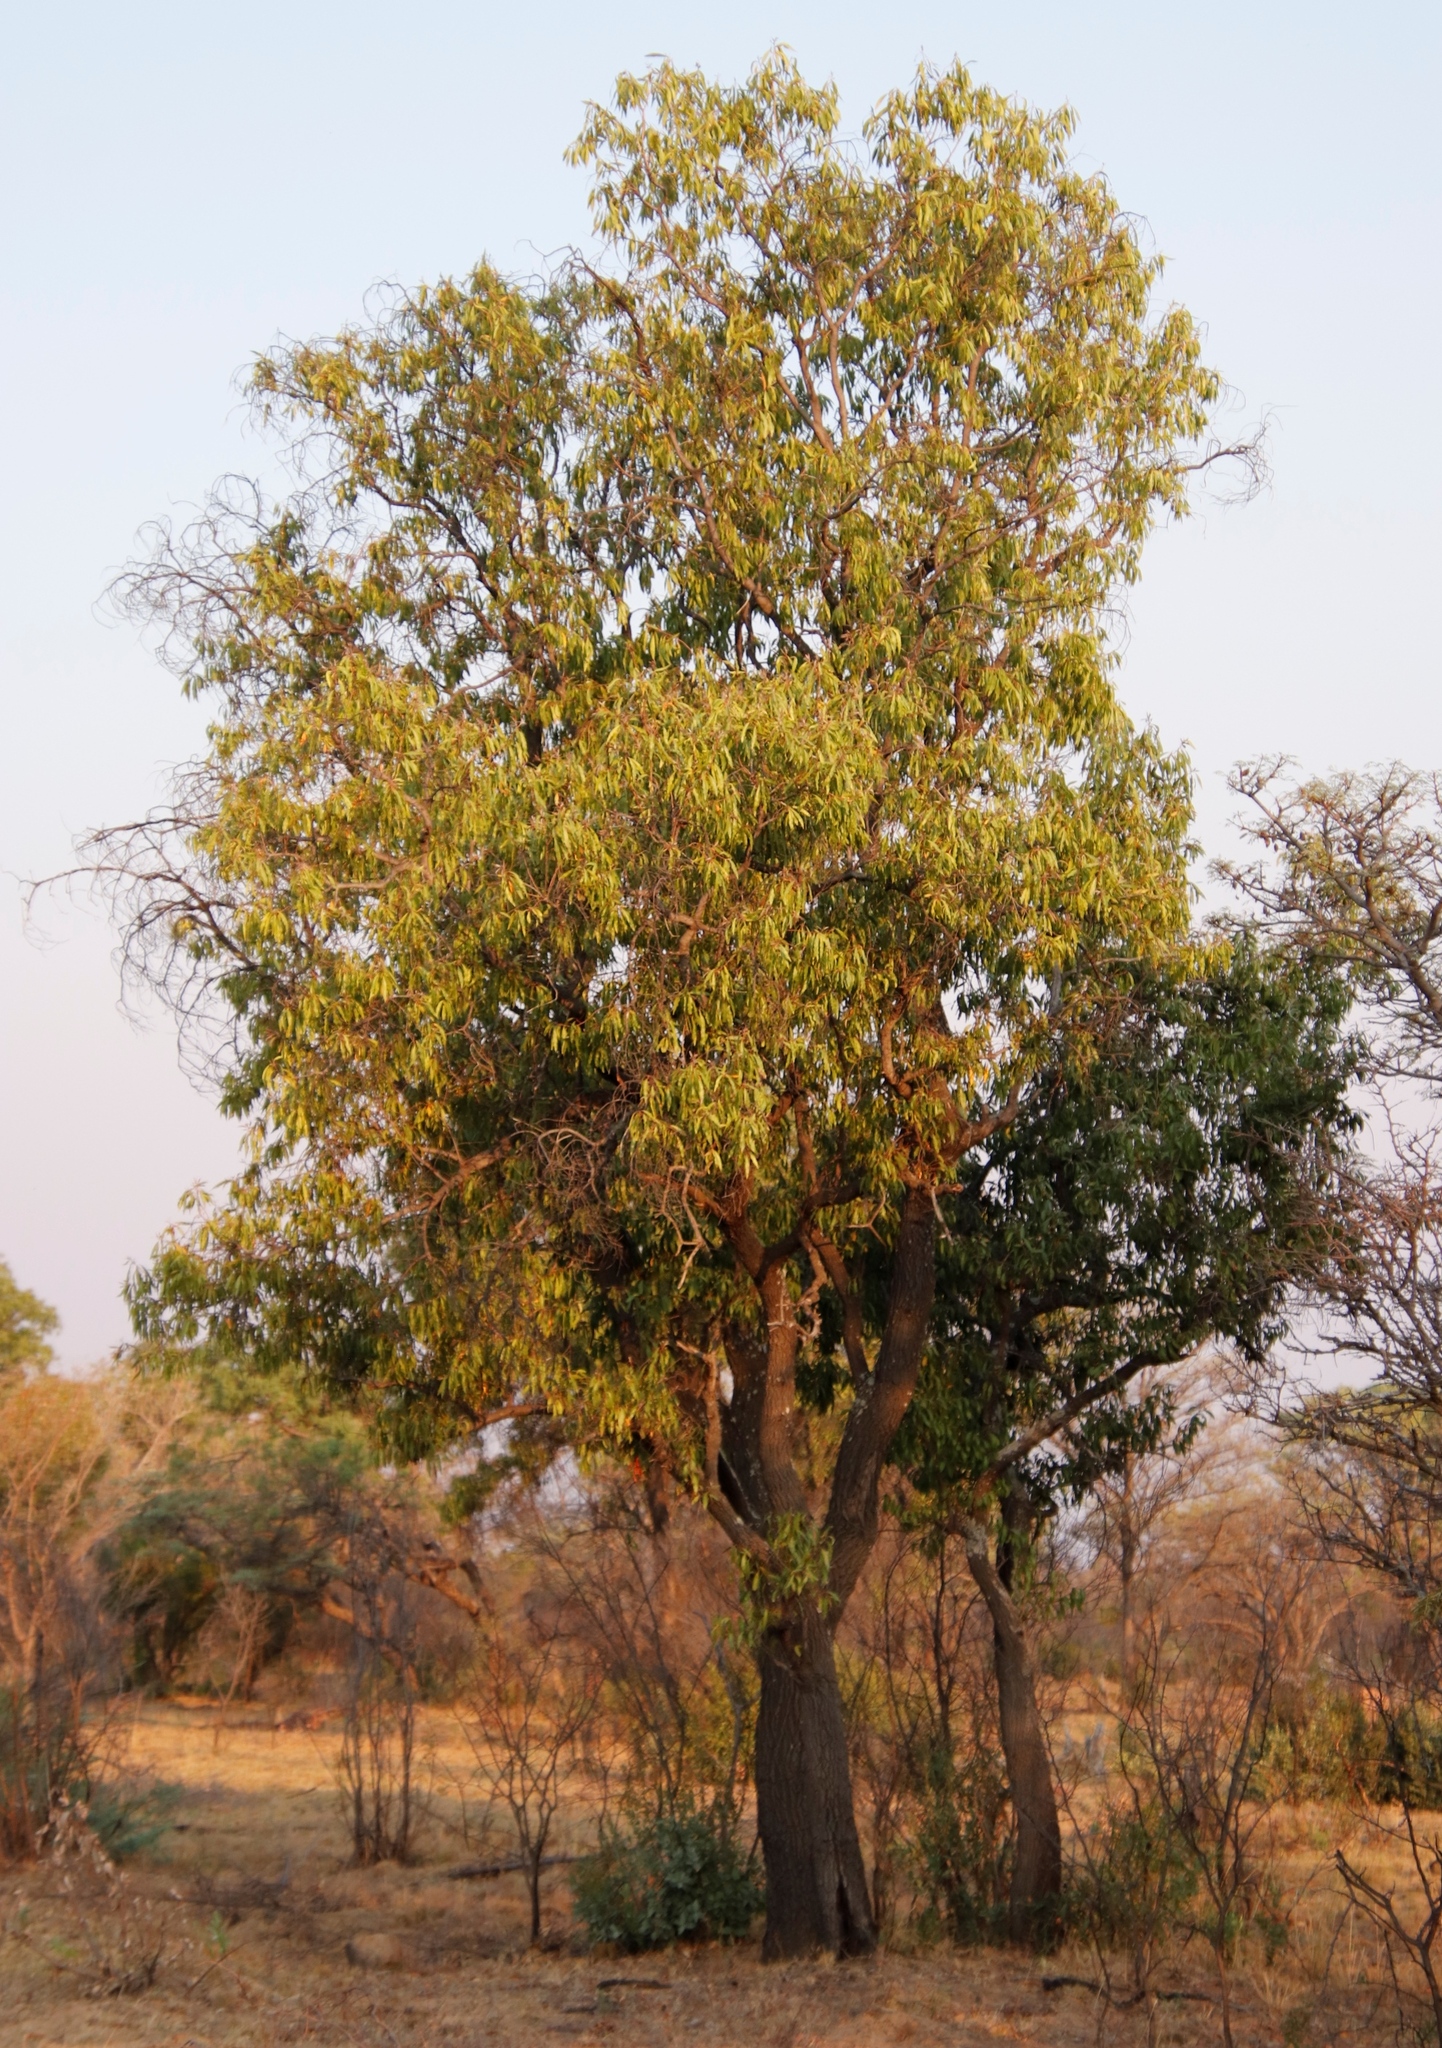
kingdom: Plantae
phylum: Tracheophyta
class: Magnoliopsida
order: Proteales
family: Proteaceae
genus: Faurea
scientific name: Faurea saligna
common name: African bean
